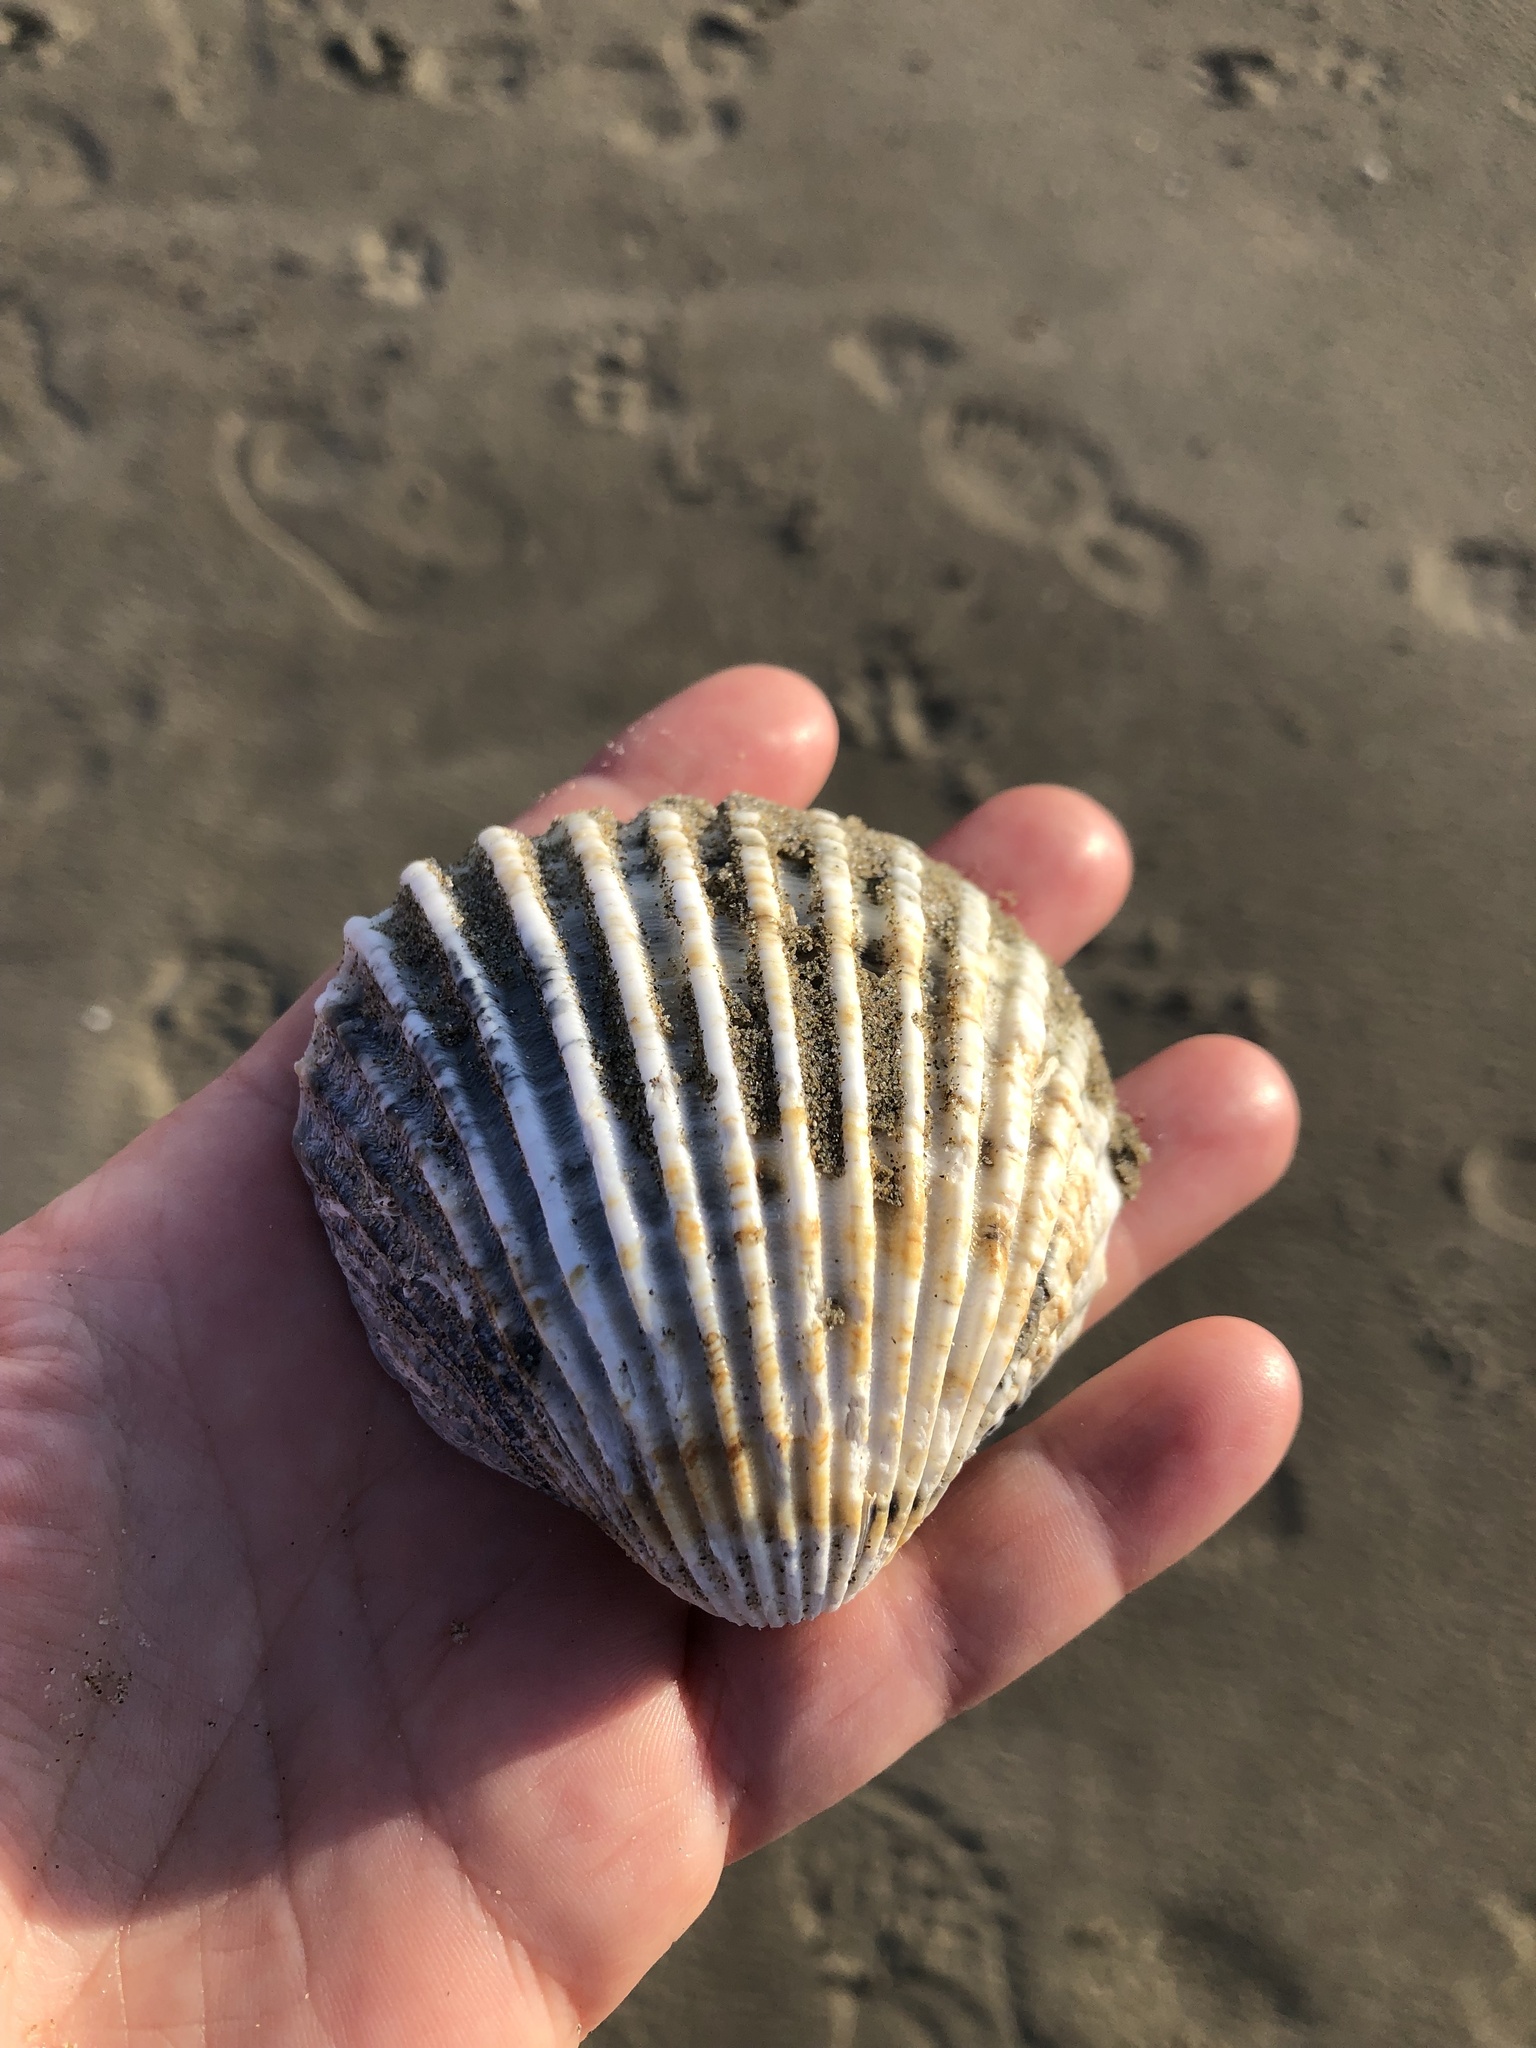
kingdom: Animalia
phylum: Mollusca
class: Bivalvia
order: Cardiida
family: Cardiidae
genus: Acanthocardia
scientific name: Acanthocardia tuberculata
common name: Rough cockle
